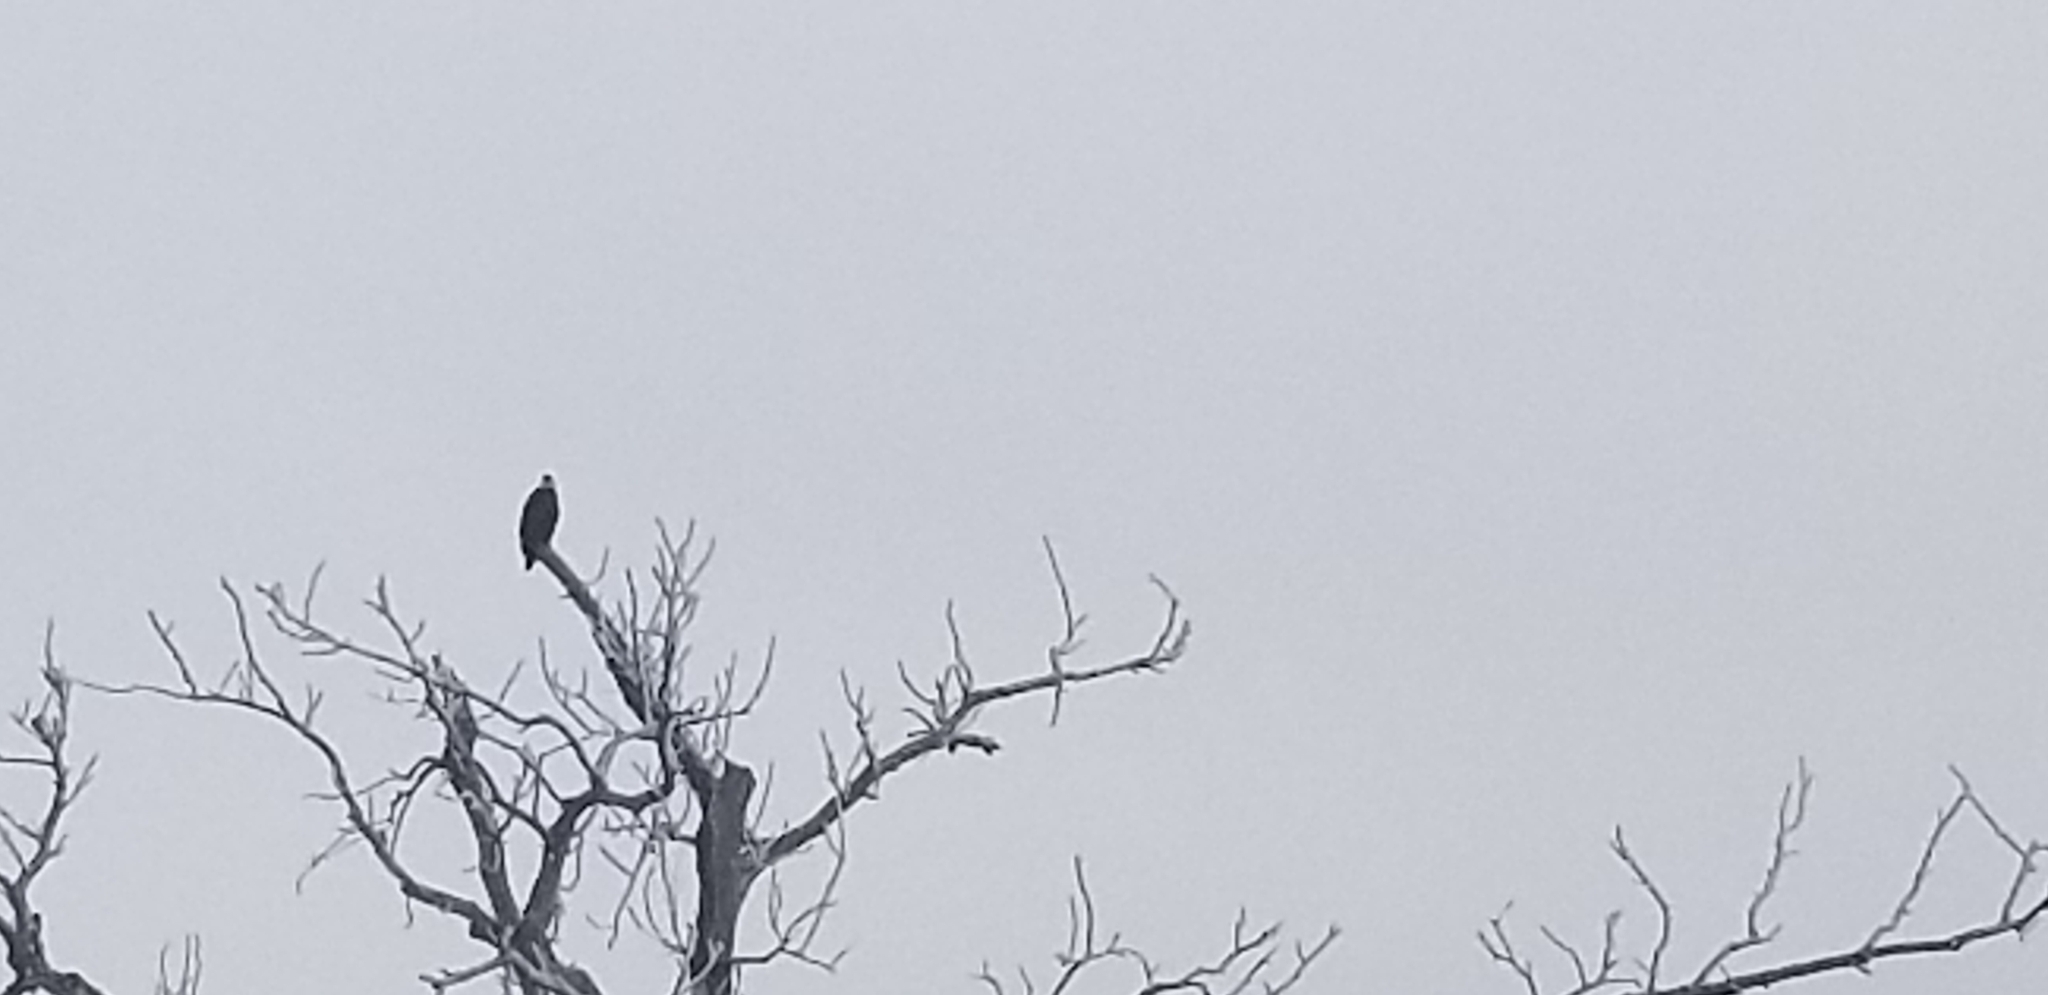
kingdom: Animalia
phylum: Chordata
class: Aves
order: Accipitriformes
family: Accipitridae
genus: Haliaeetus
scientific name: Haliaeetus leucocephalus
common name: Bald eagle
